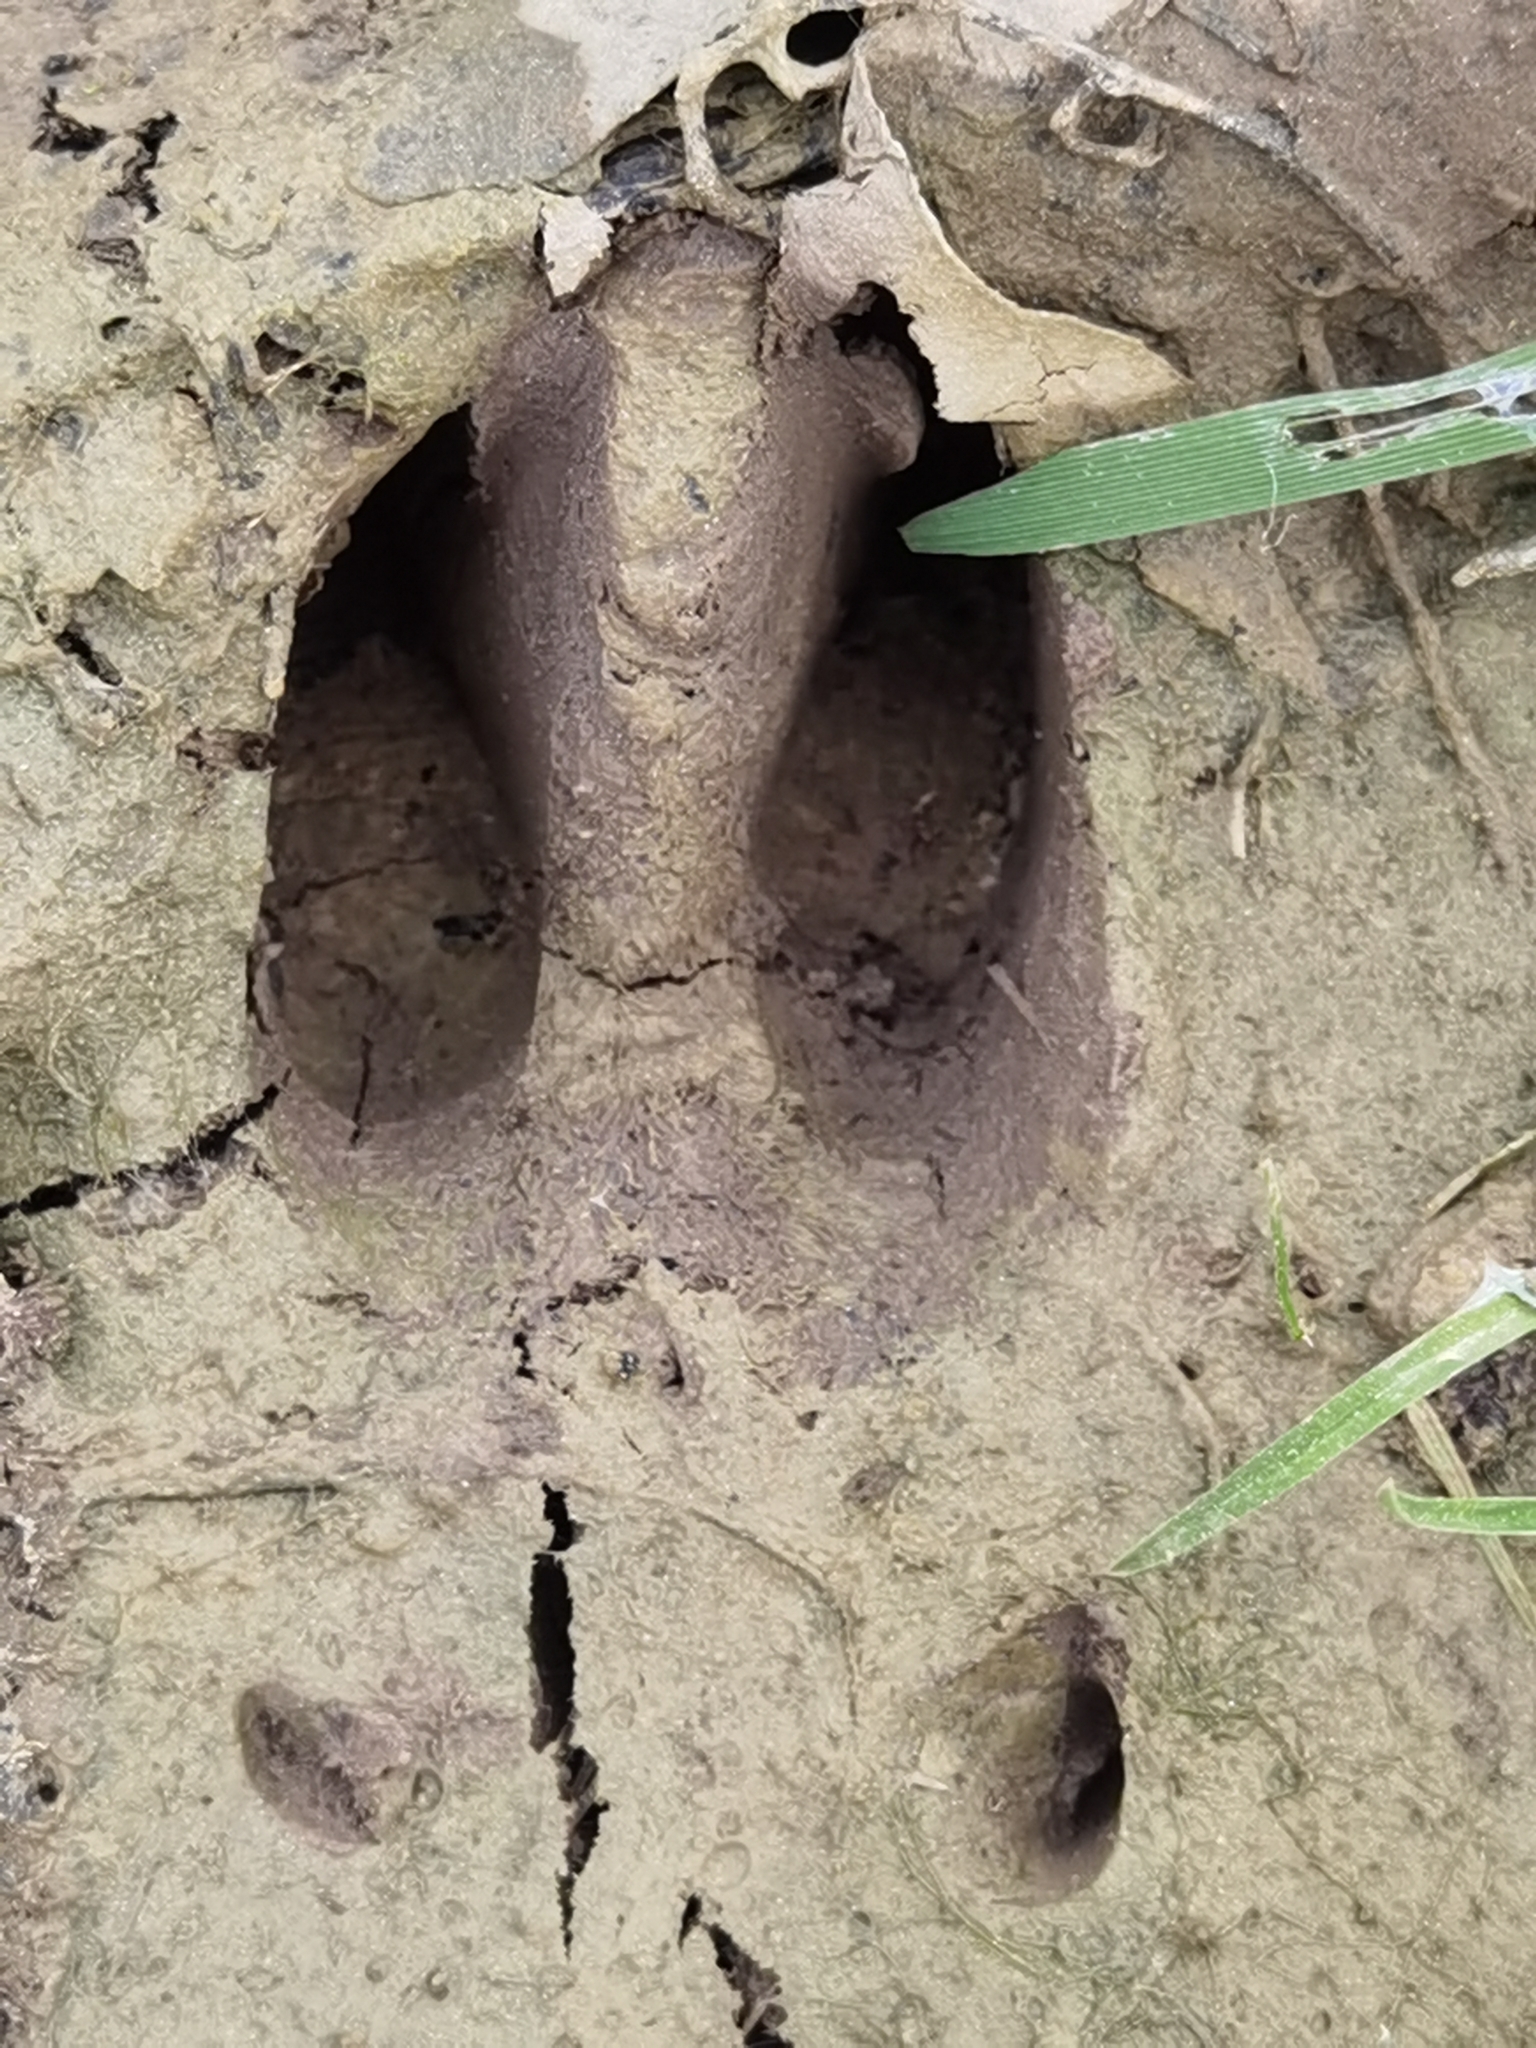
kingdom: Animalia
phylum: Chordata
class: Mammalia
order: Artiodactyla
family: Cervidae
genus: Capreolus
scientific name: Capreolus capreolus
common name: Western roe deer
